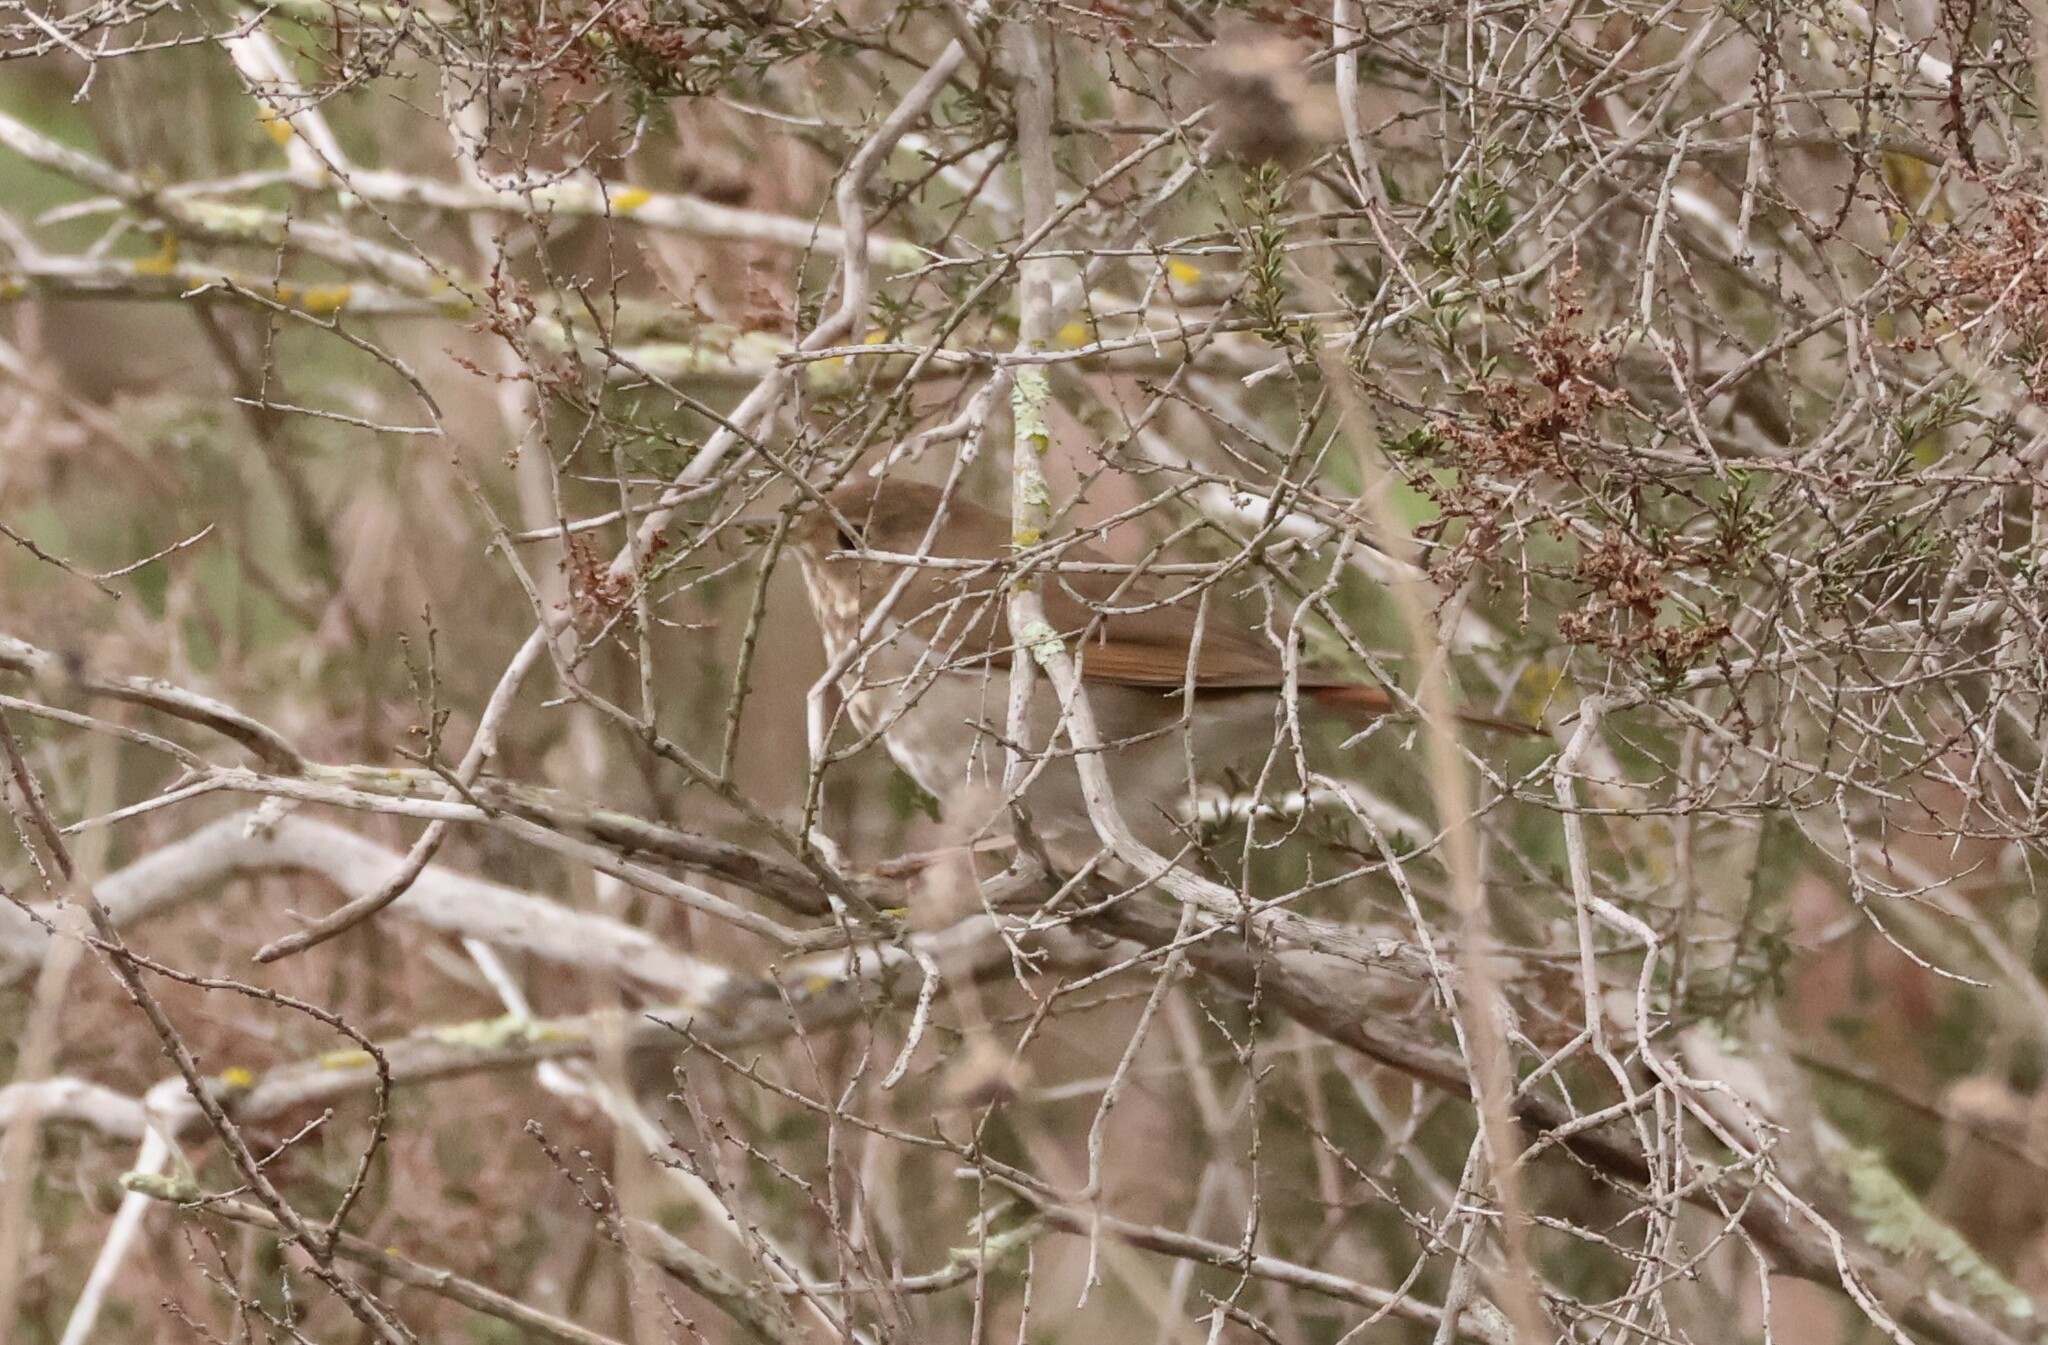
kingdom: Animalia
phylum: Chordata
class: Aves
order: Passeriformes
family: Turdidae
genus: Catharus
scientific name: Catharus guttatus
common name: Hermit thrush
